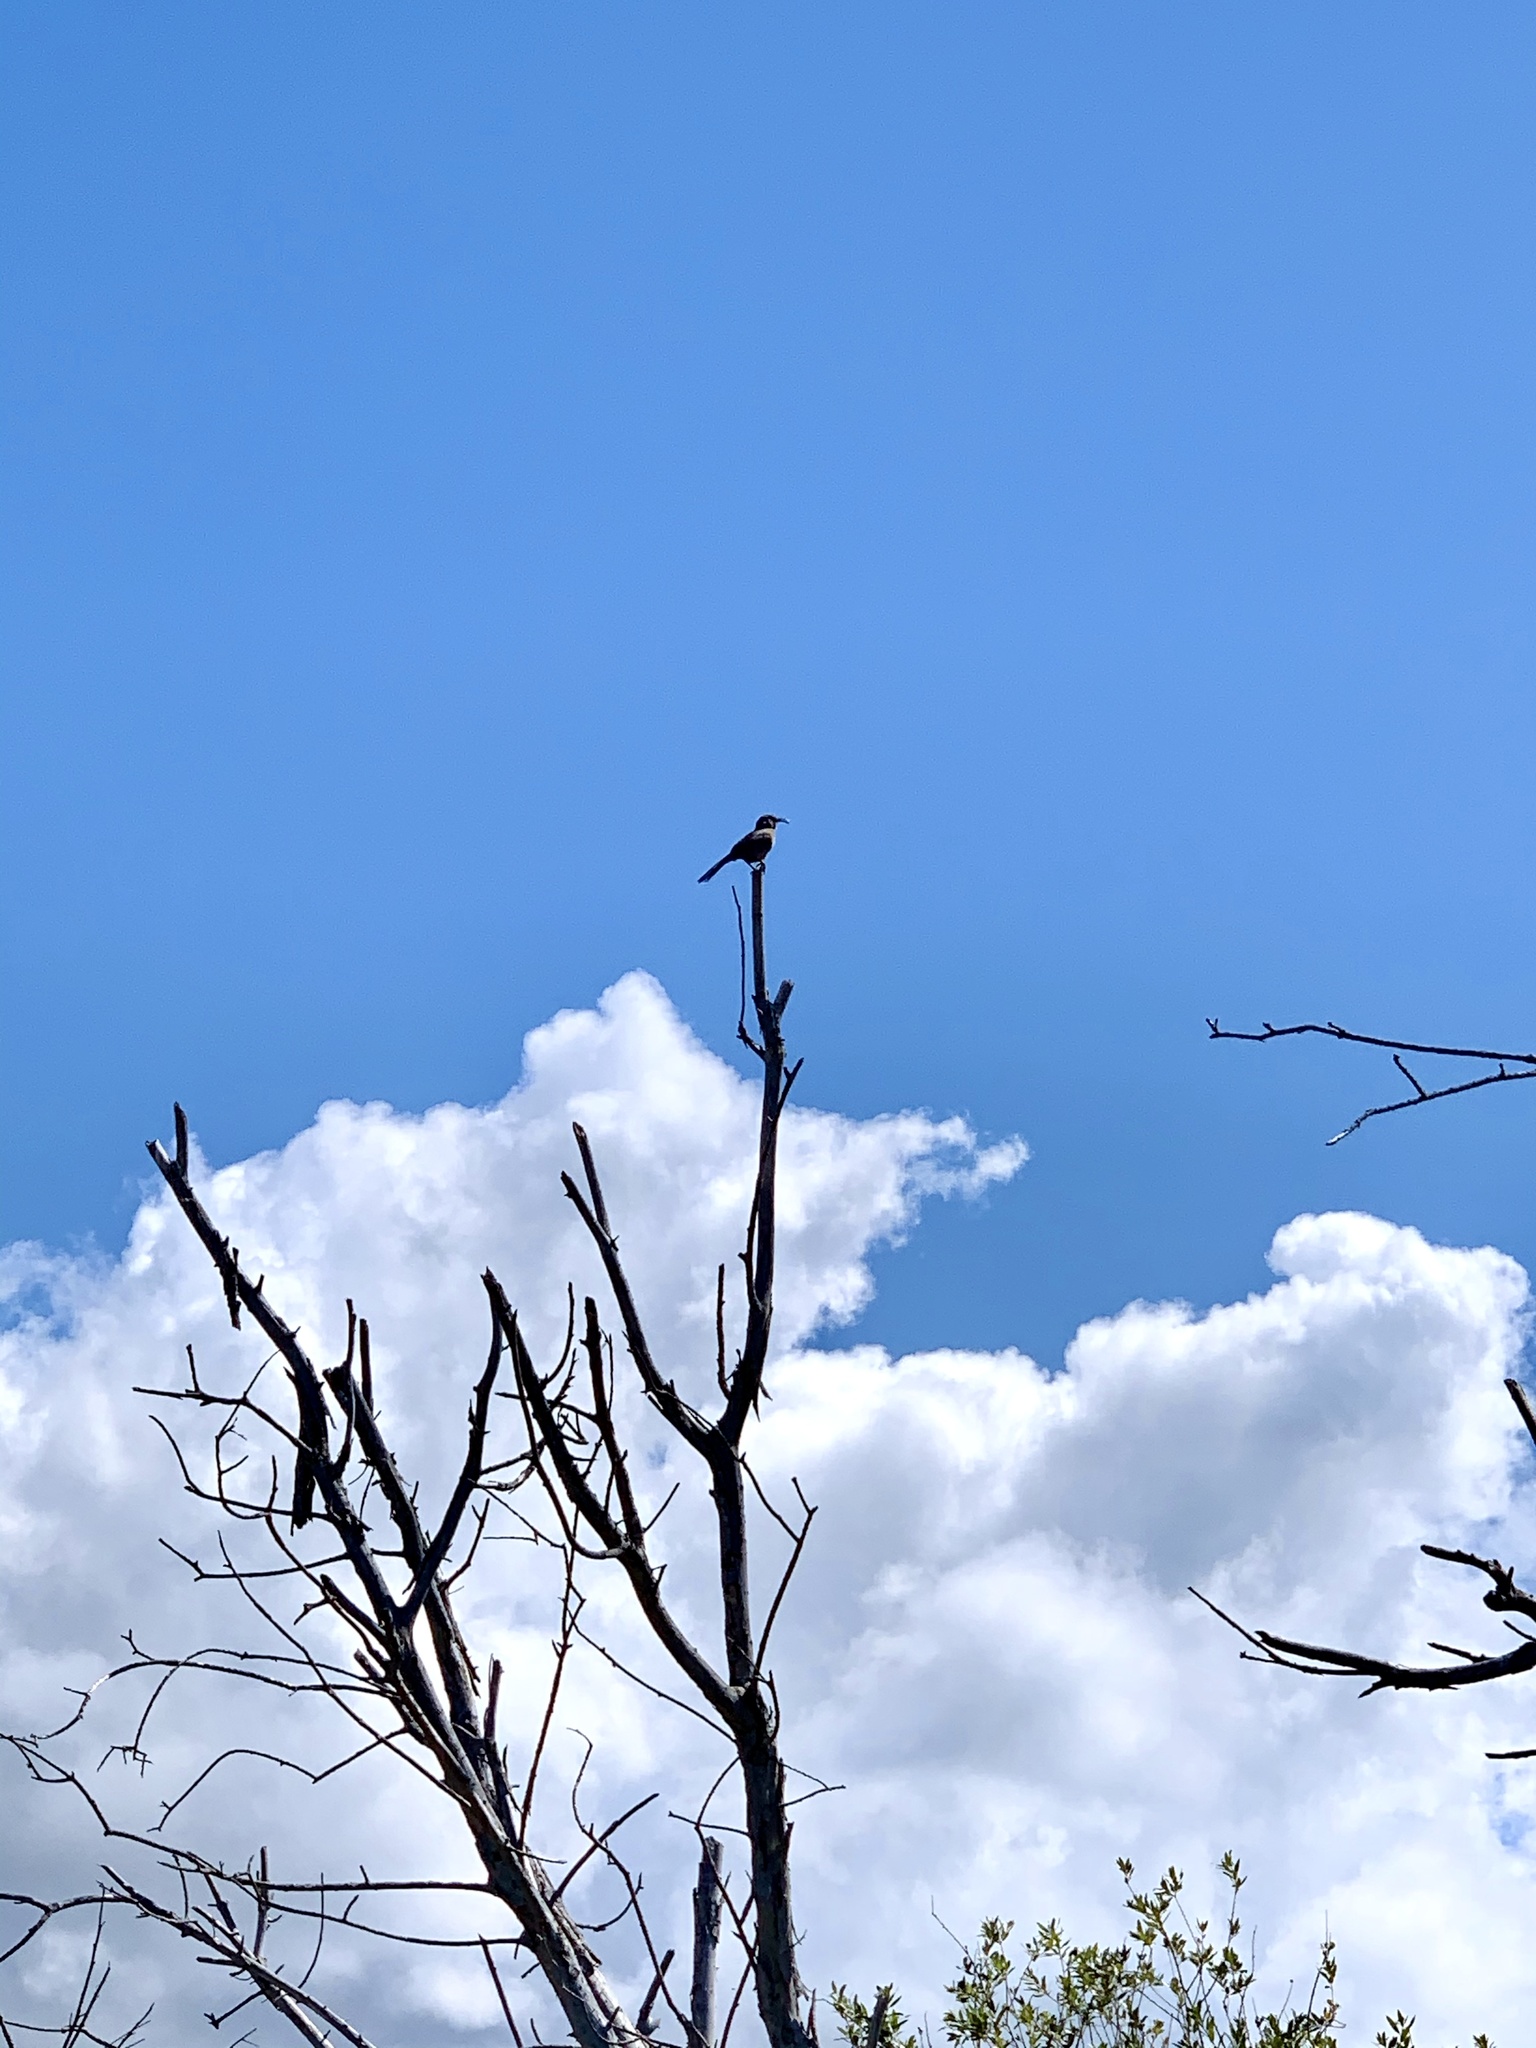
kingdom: Animalia
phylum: Chordata
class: Aves
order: Passeriformes
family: Mimidae
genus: Toxostoma
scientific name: Toxostoma redivivum
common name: California thrasher
